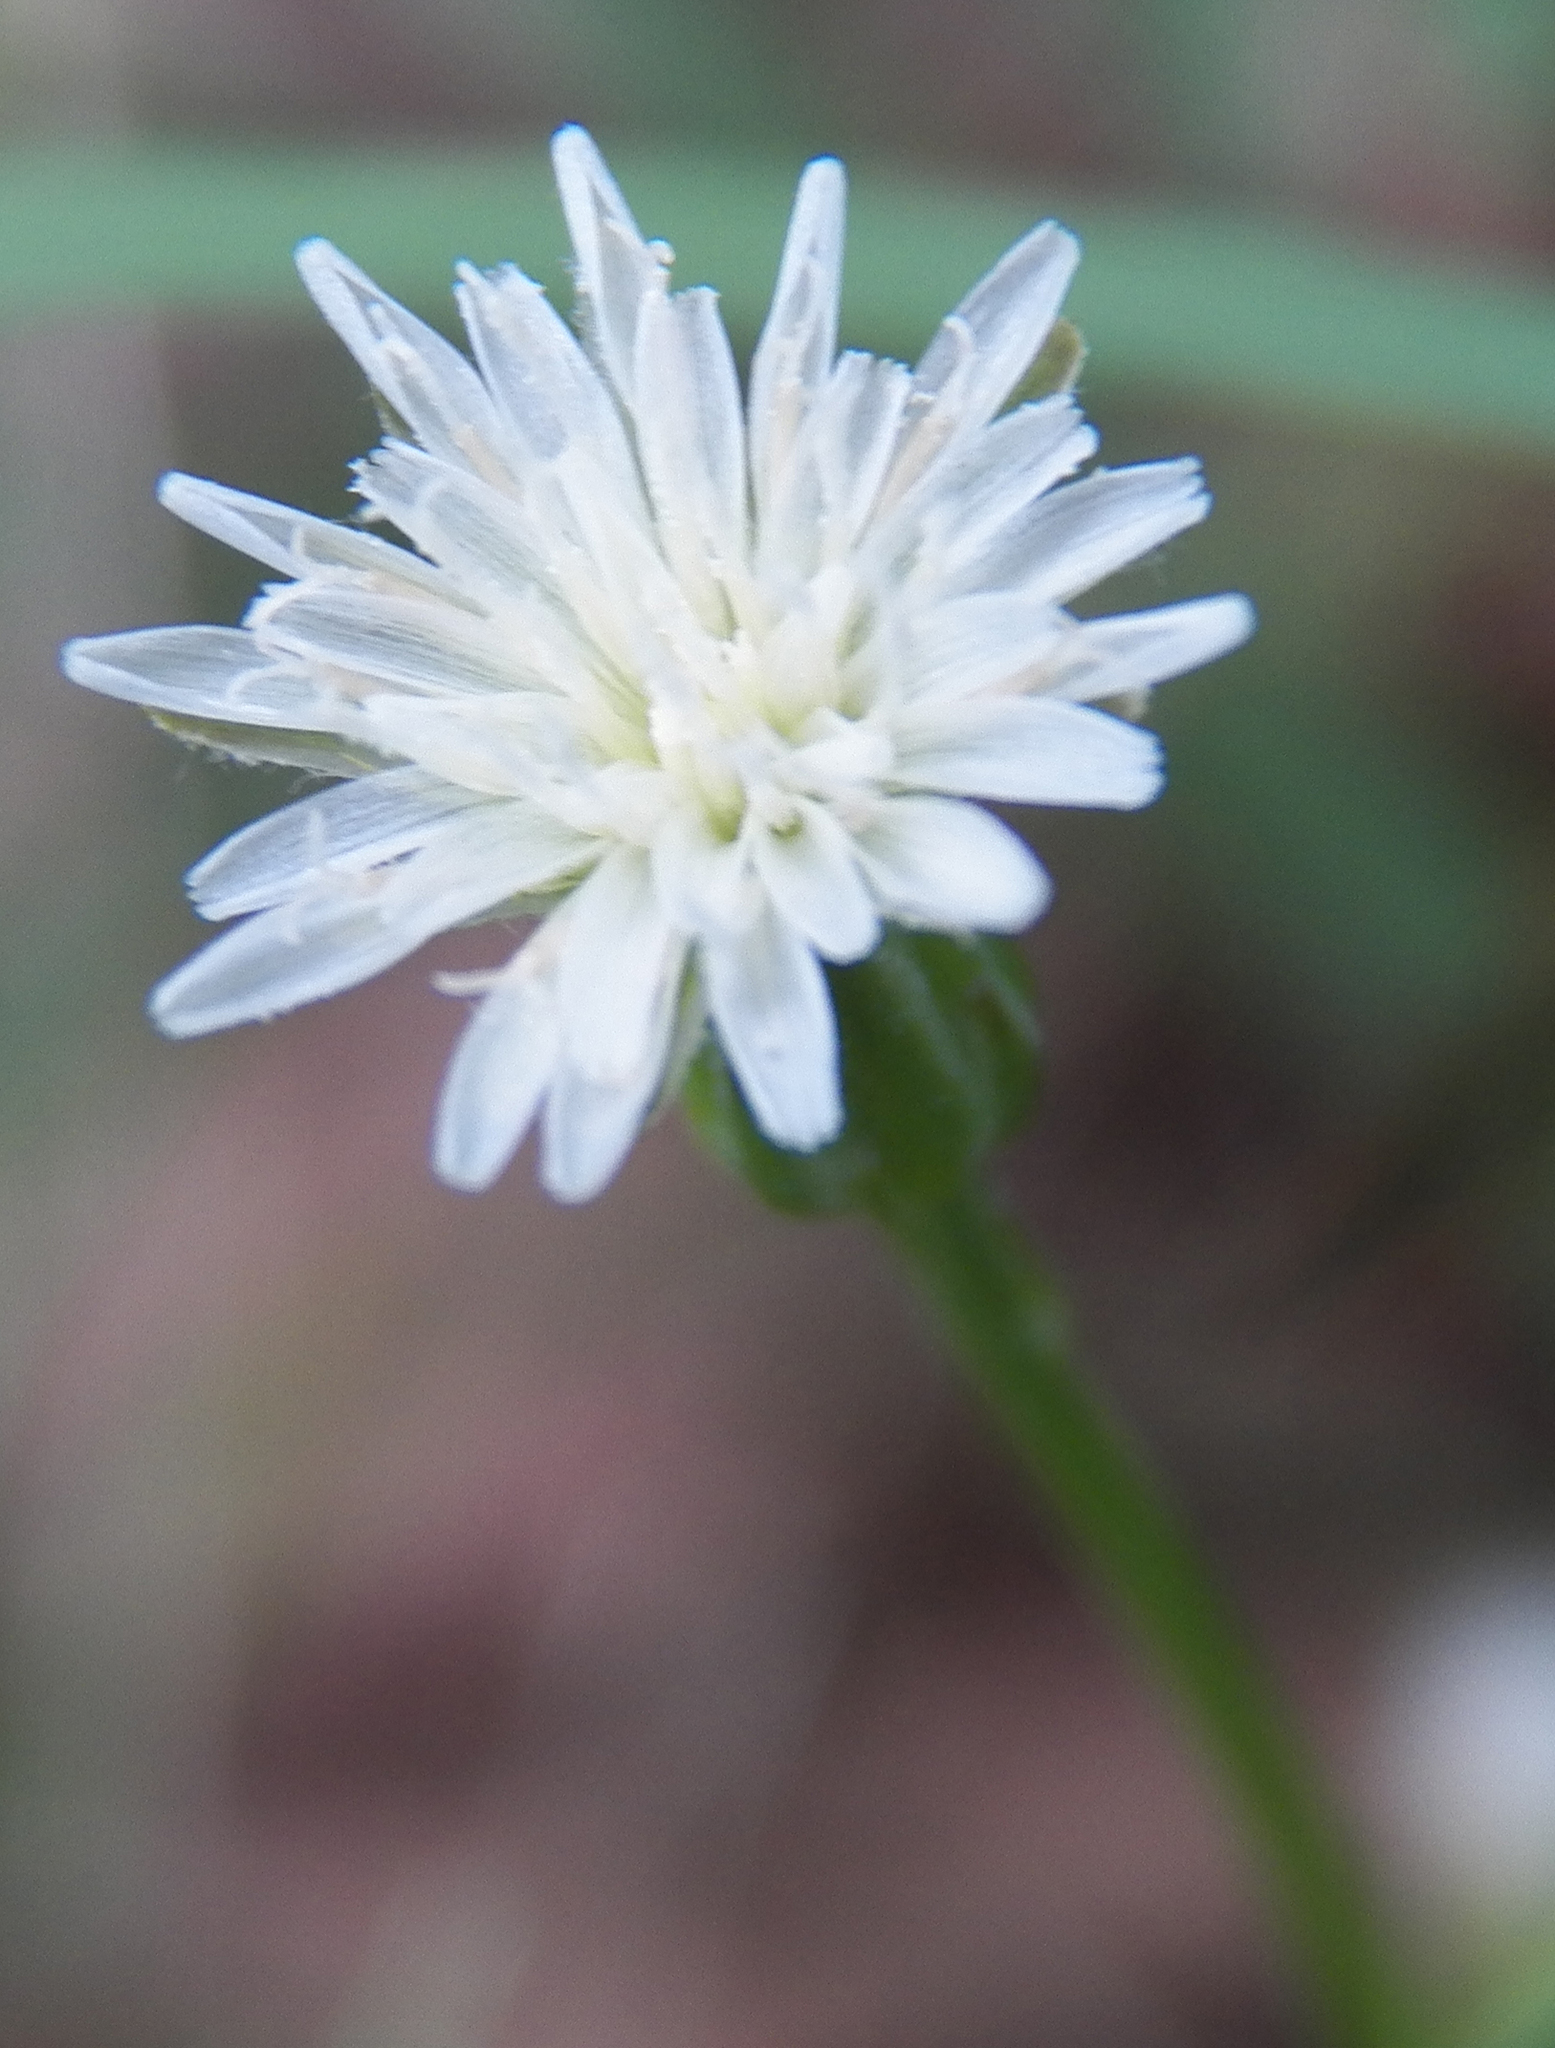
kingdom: Plantae
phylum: Tracheophyta
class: Magnoliopsida
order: Asterales
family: Asteraceae
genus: Hypochaeris
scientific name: Hypochaeris albiflora
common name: White flatweed
